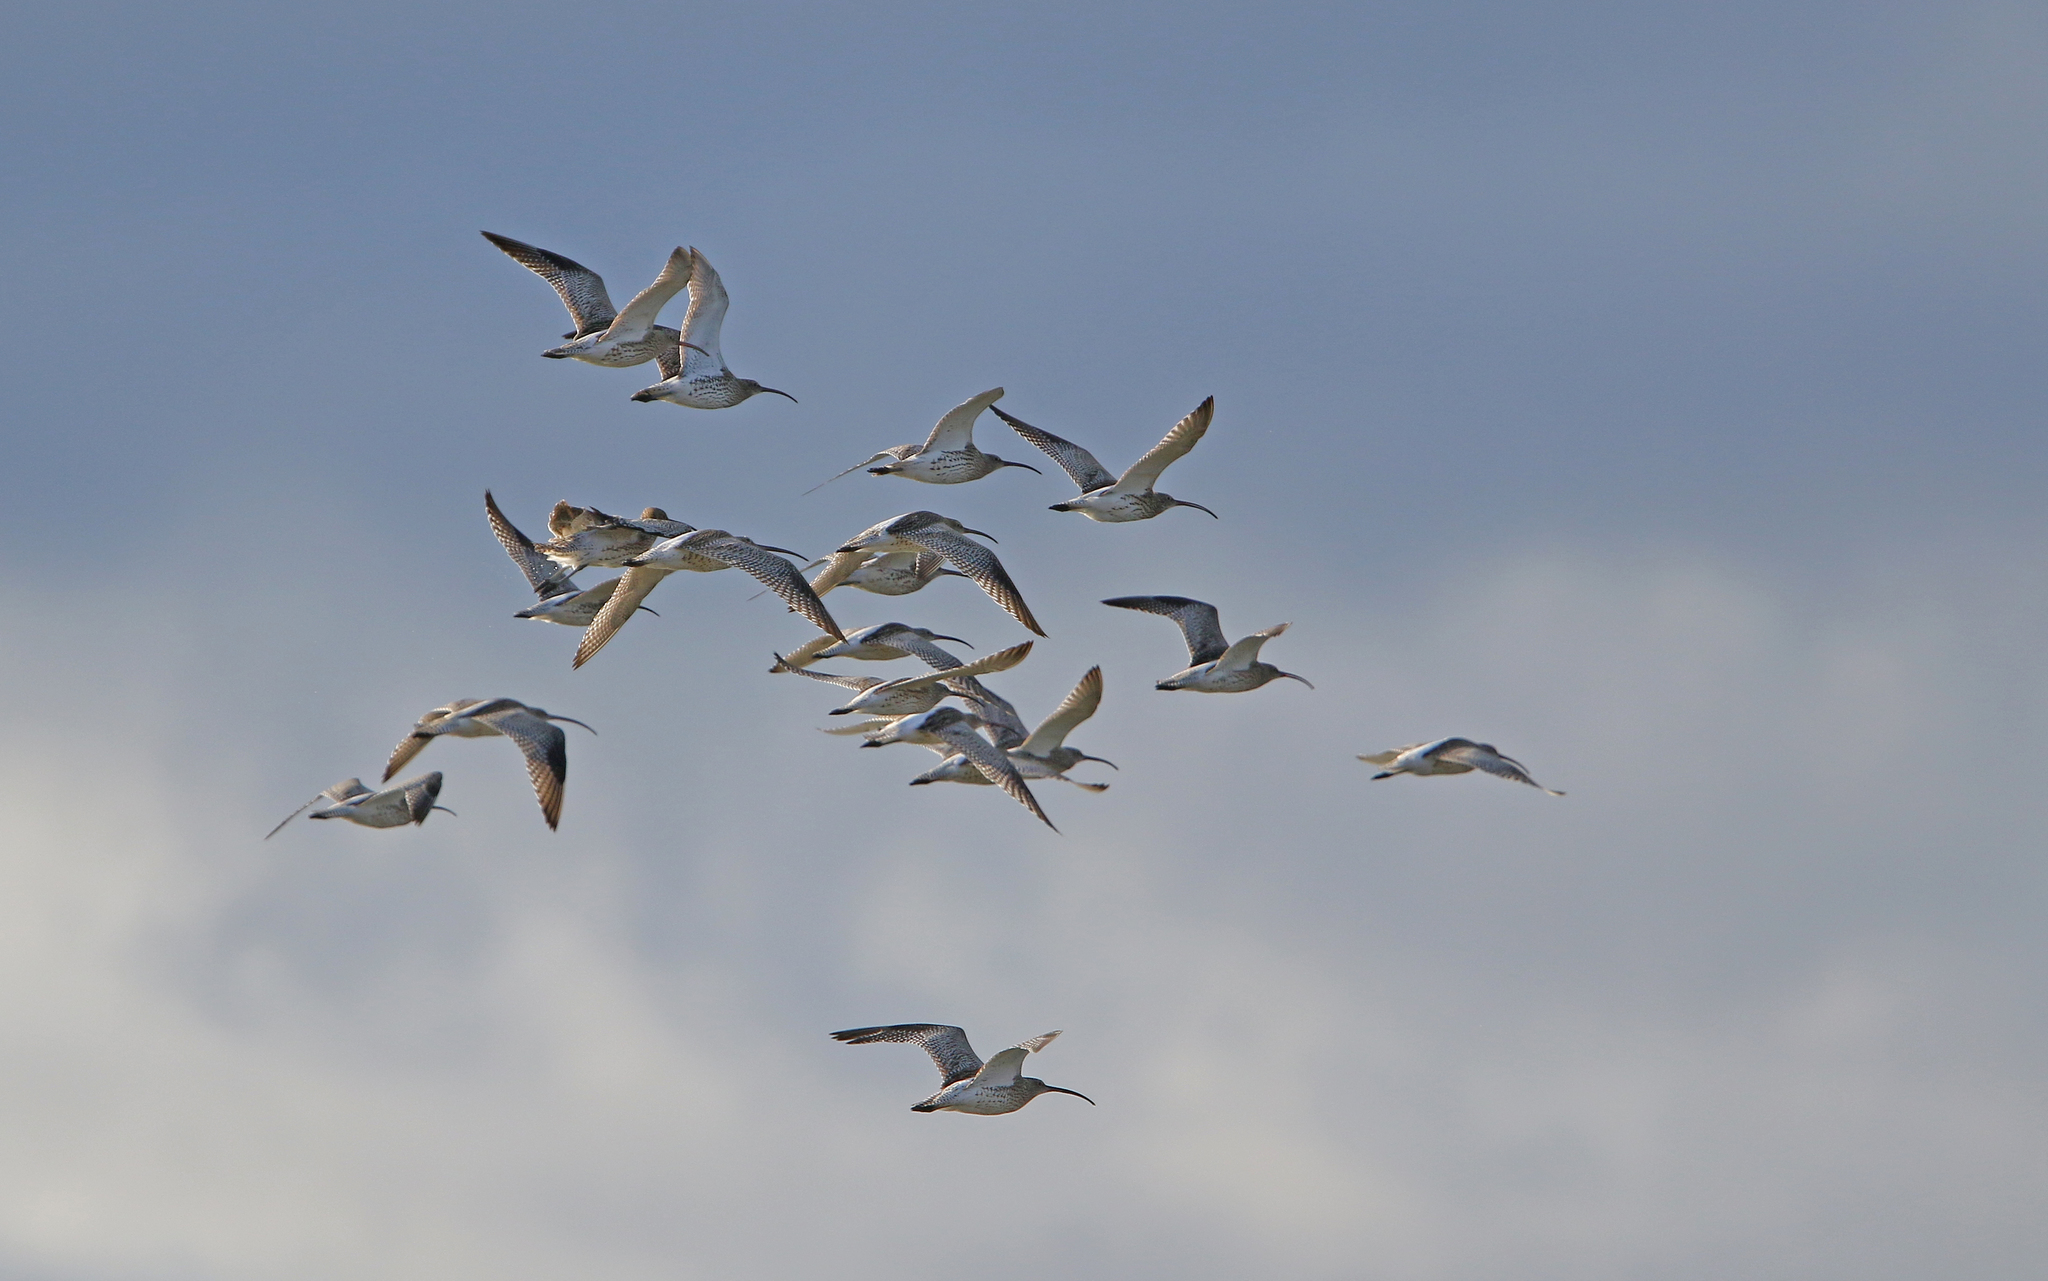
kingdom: Animalia
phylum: Chordata
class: Aves
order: Charadriiformes
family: Scolopacidae
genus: Numenius
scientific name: Numenius arquata
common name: Eurasian curlew
